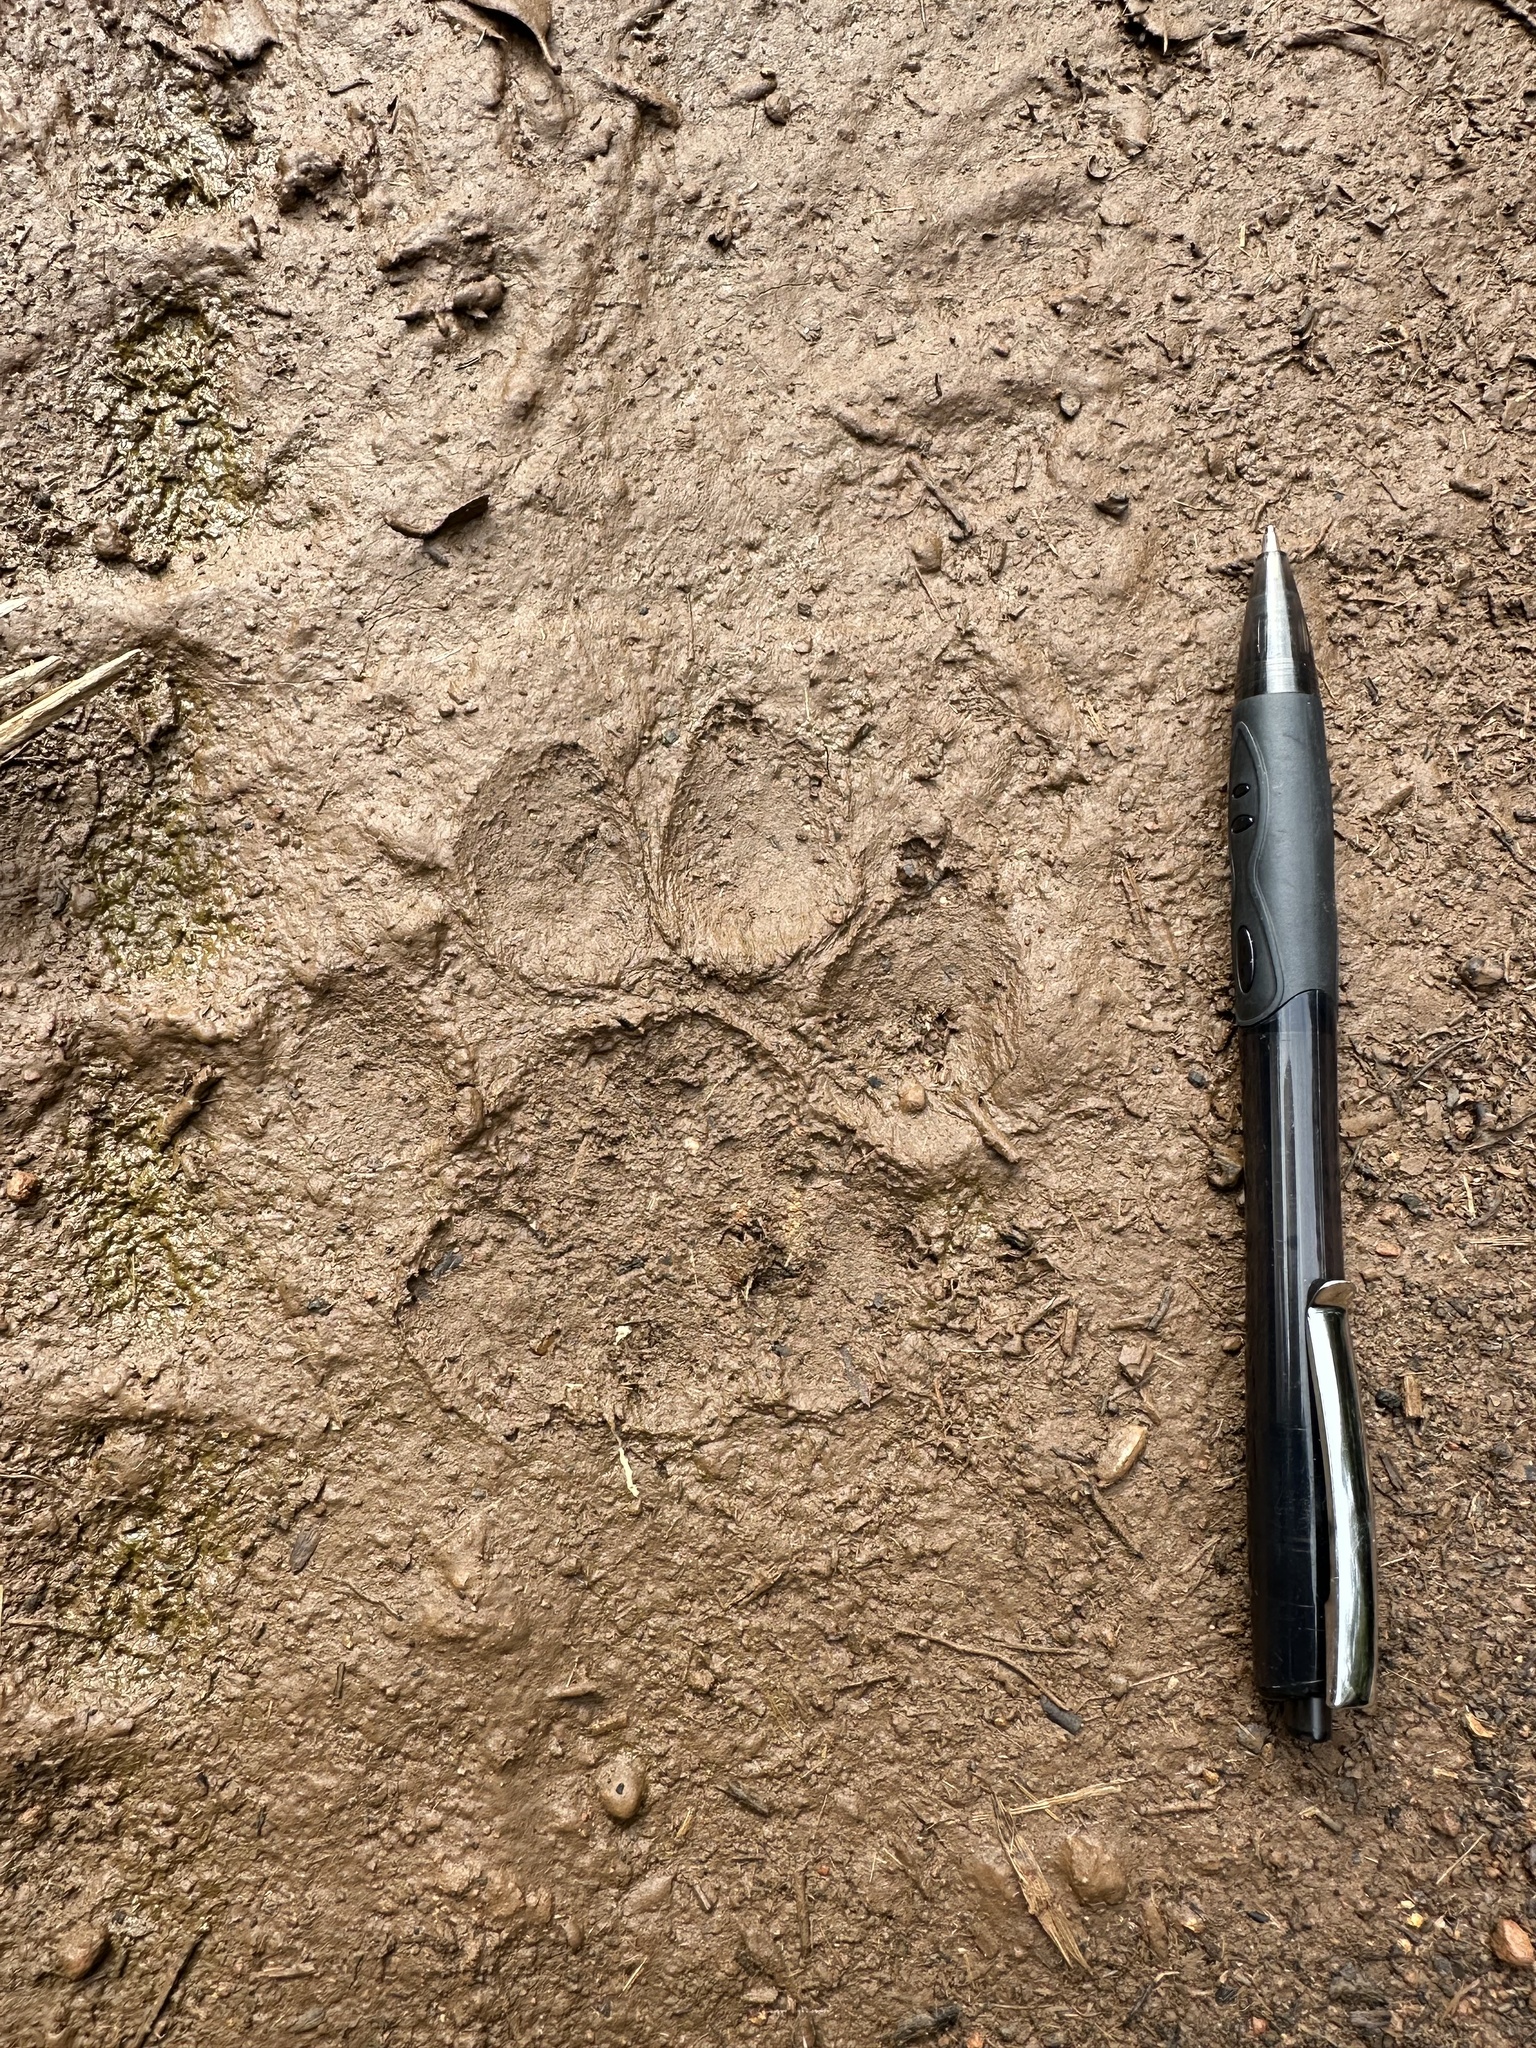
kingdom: Animalia
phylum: Chordata
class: Mammalia
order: Carnivora
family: Felidae
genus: Puma
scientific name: Puma concolor
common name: Puma
